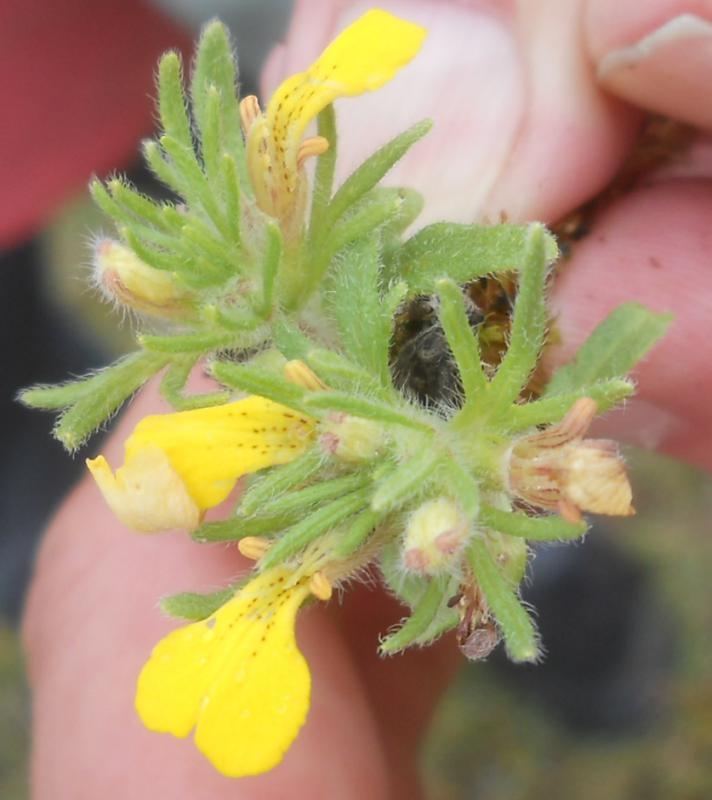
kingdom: Plantae
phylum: Tracheophyta
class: Magnoliopsida
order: Lamiales
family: Lamiaceae
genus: Ajuga
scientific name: Ajuga chamaepitys
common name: Ground-pine
